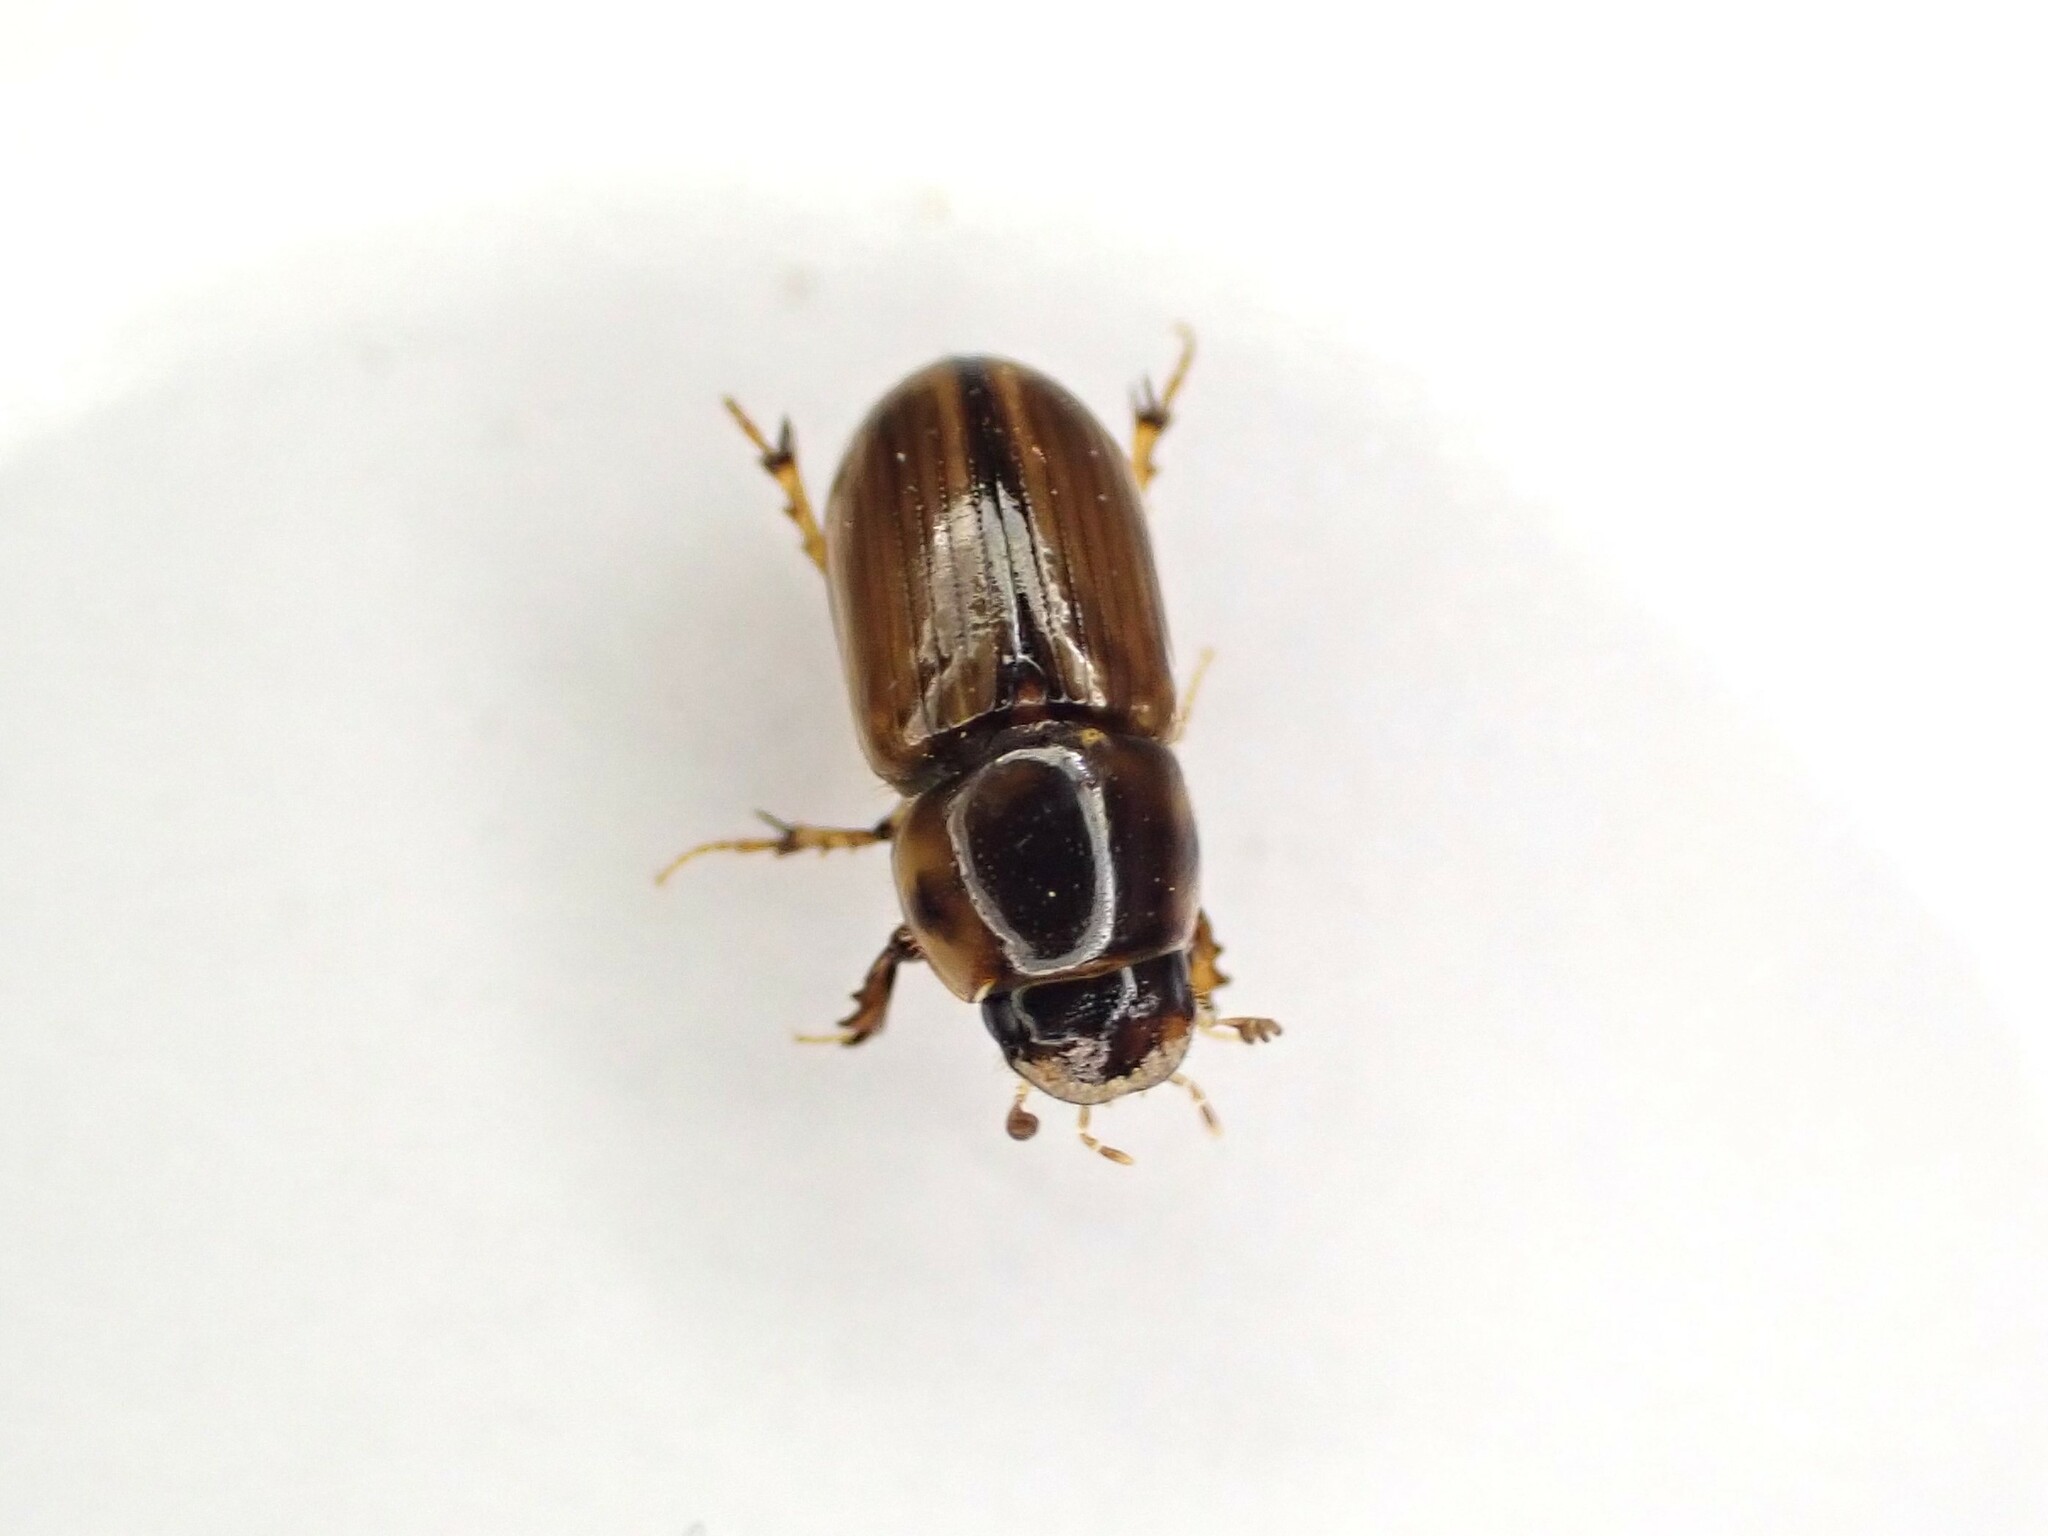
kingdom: Animalia
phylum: Arthropoda
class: Insecta
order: Coleoptera
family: Scarabaeidae
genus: Labarrus
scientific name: Labarrus lividus
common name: Scarab beetle
